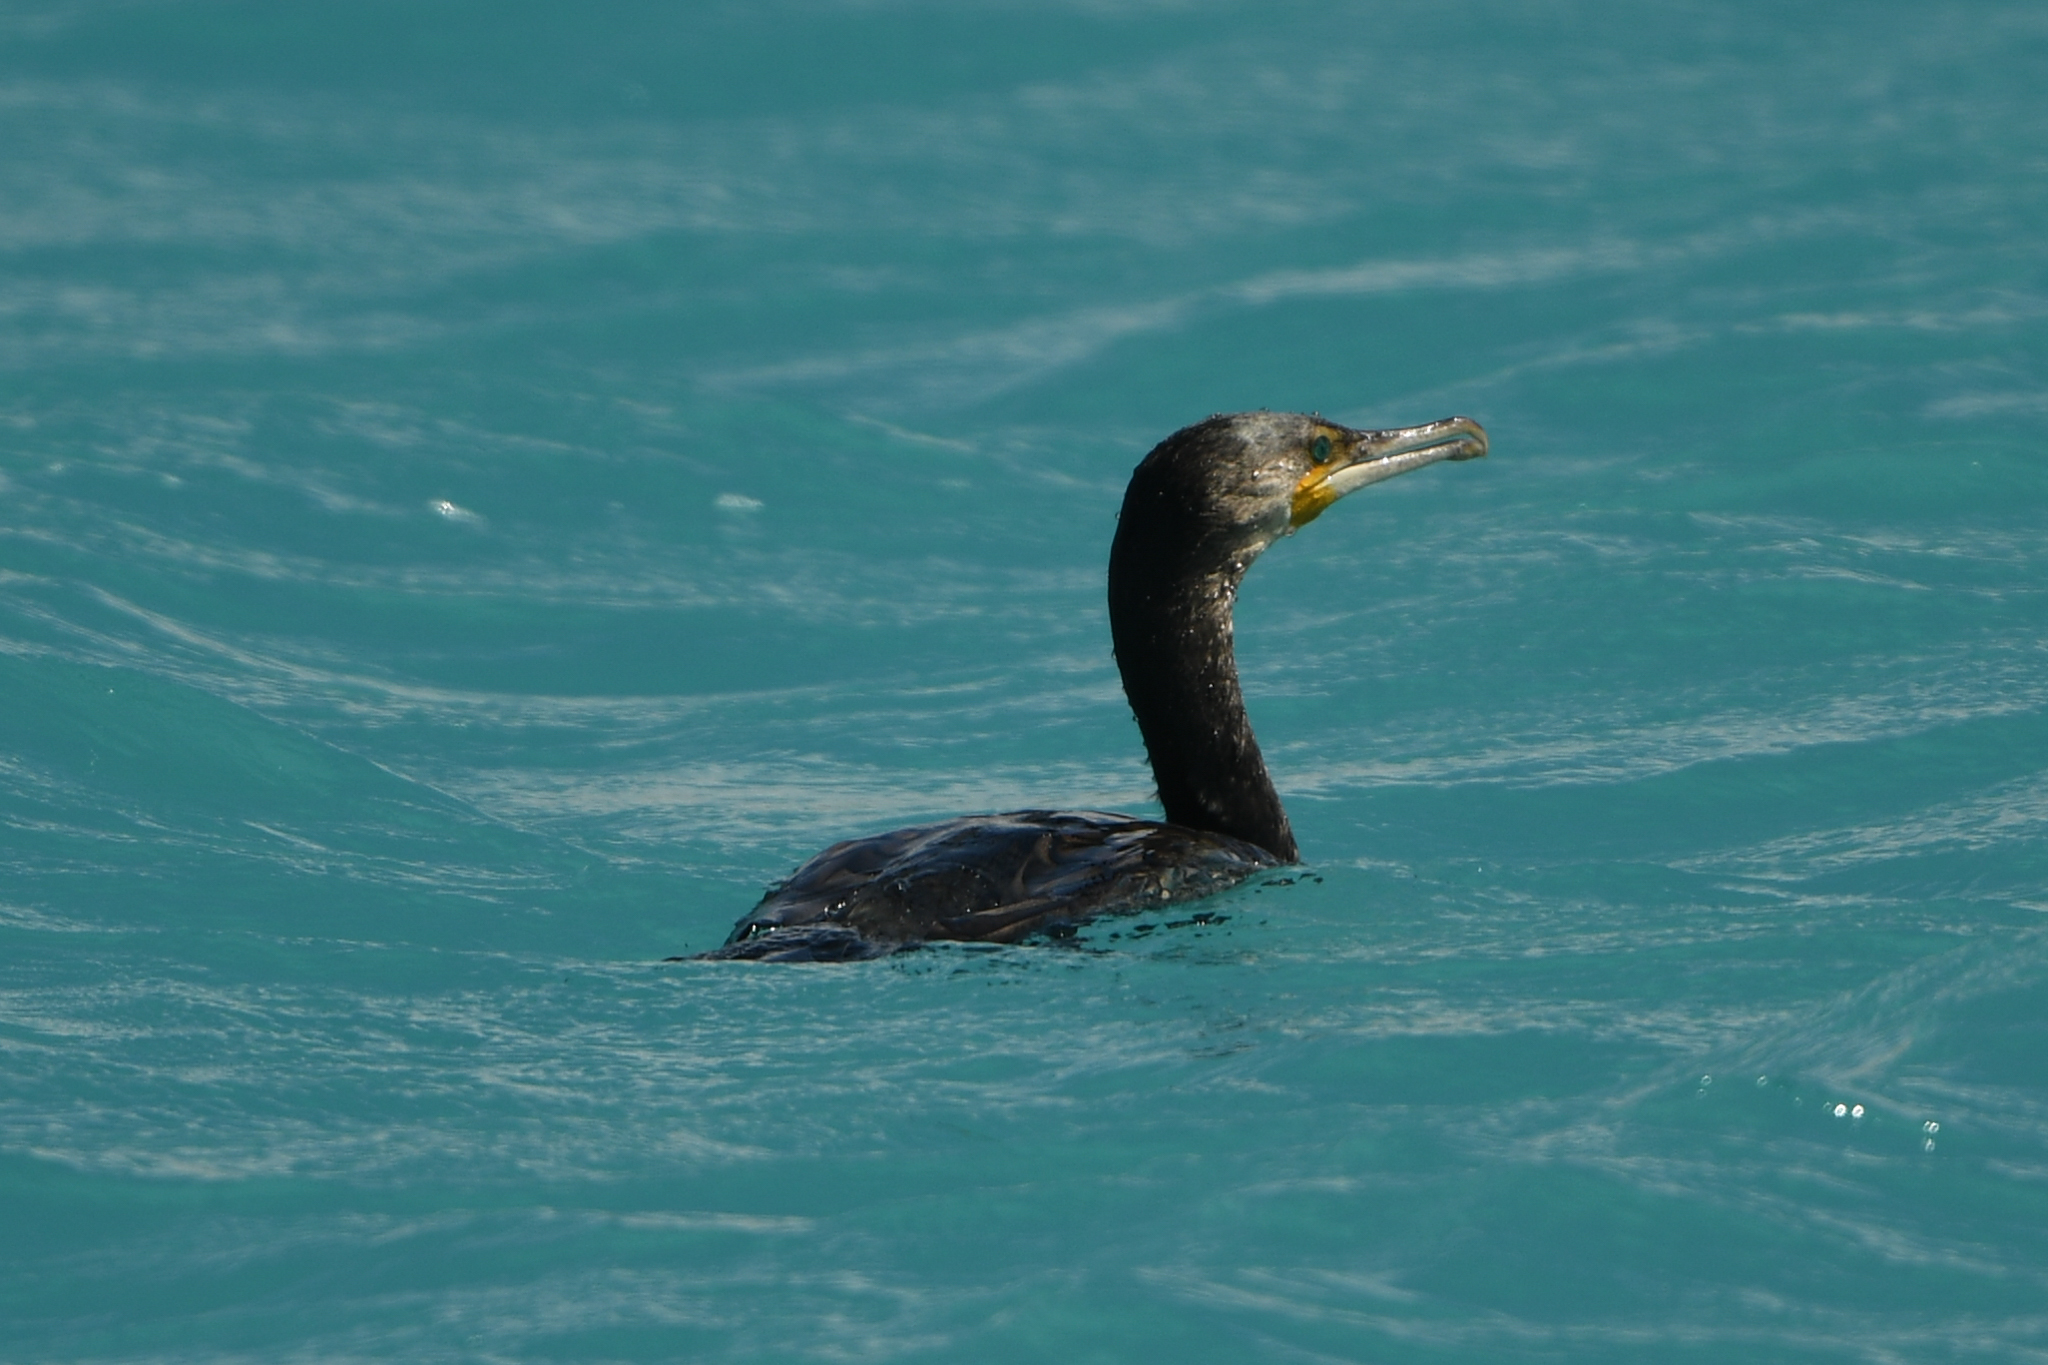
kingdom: Animalia
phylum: Chordata
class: Aves
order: Suliformes
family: Phalacrocoracidae
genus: Phalacrocorax
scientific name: Phalacrocorax carbo
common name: Great cormorant
